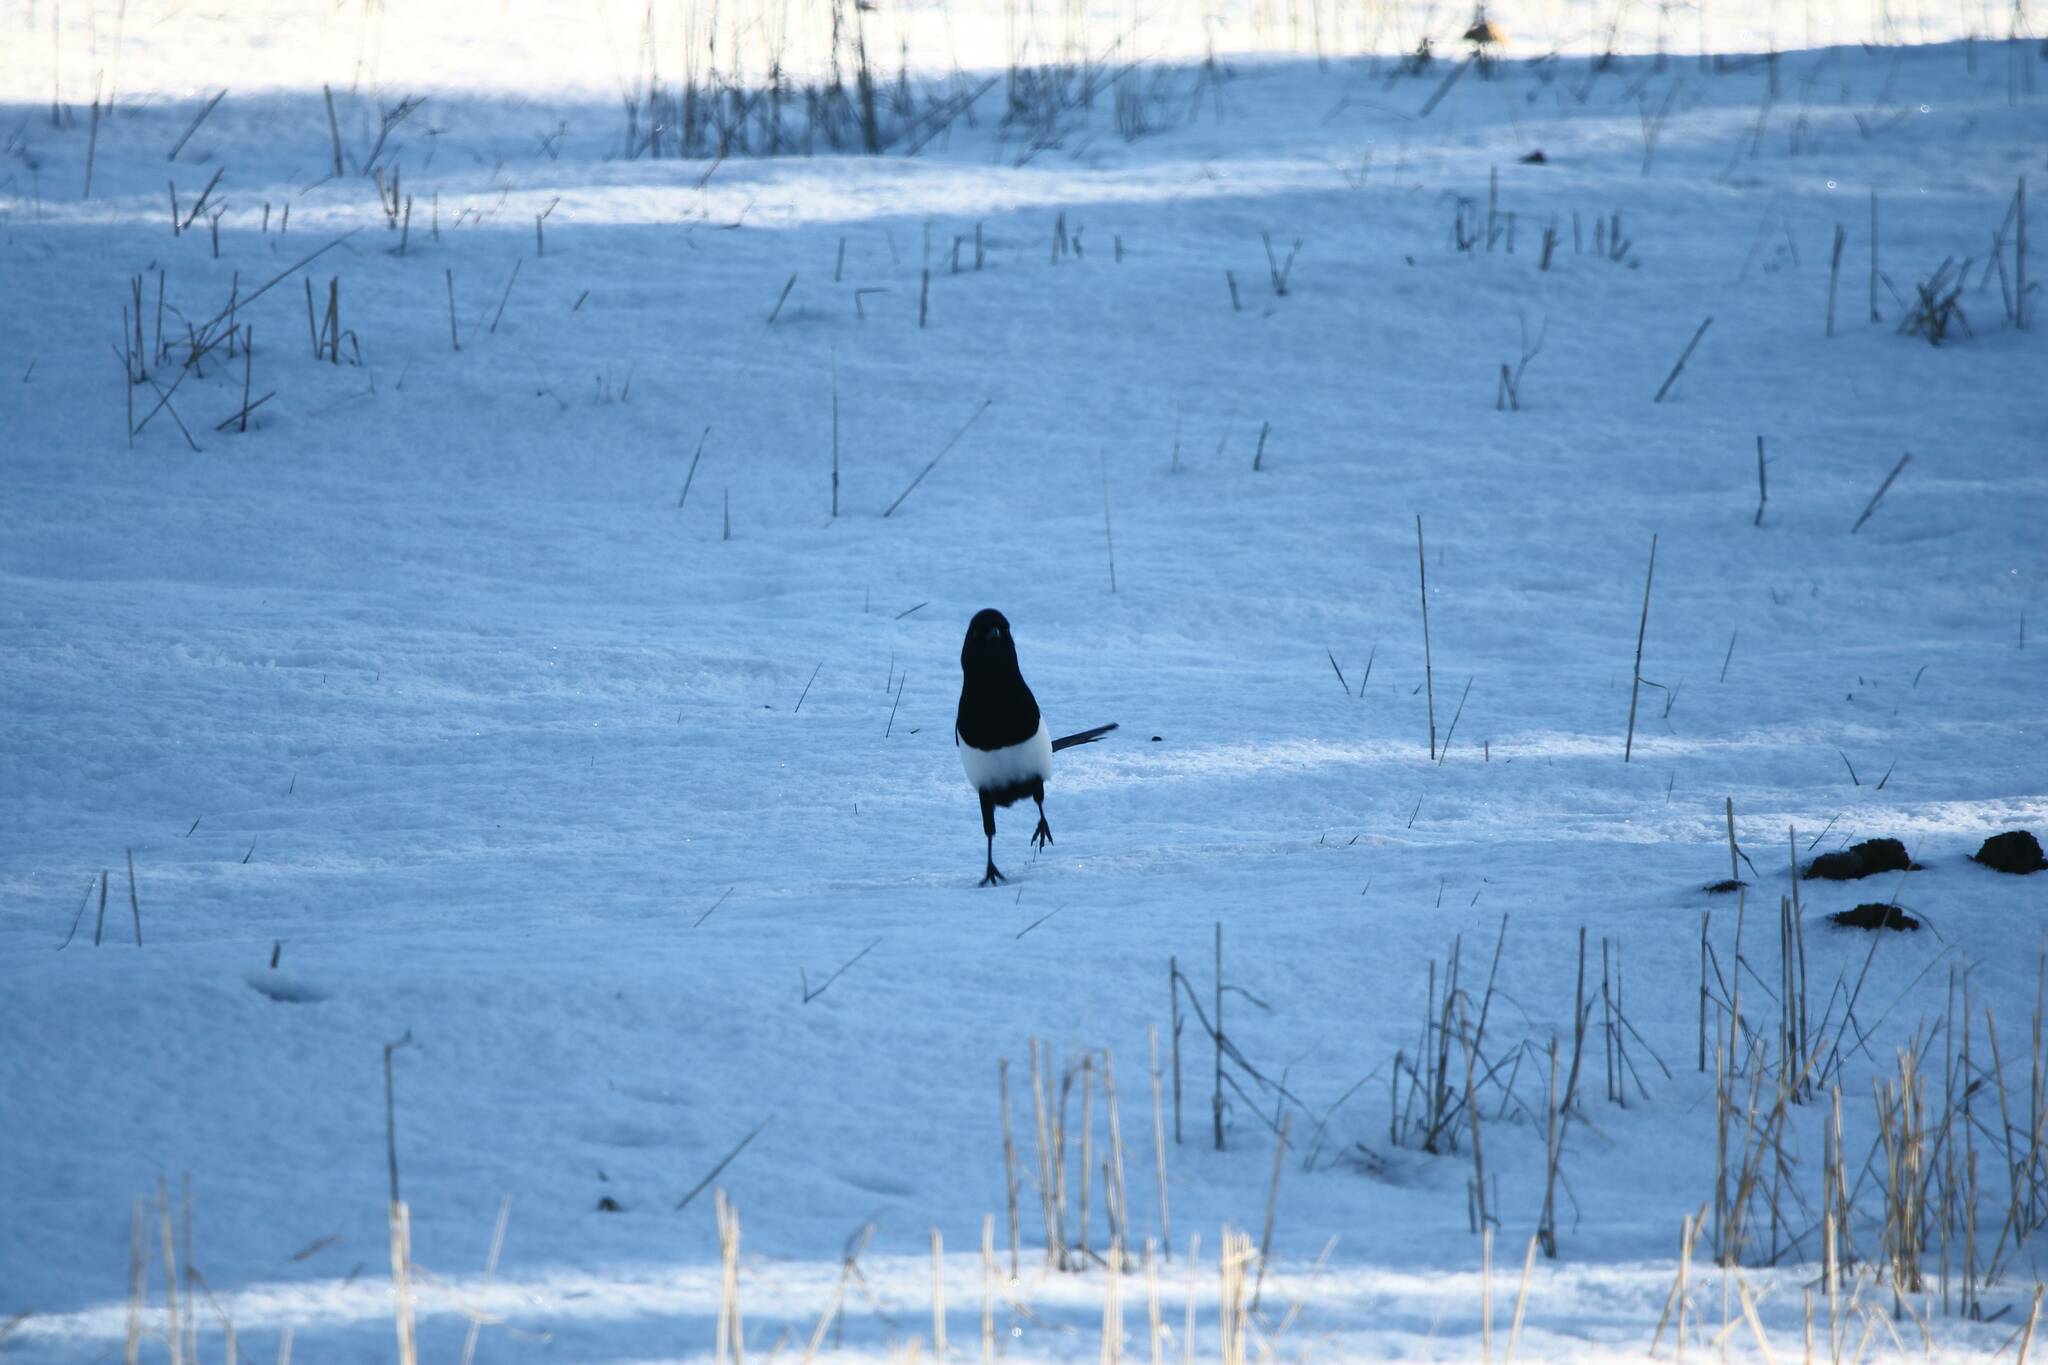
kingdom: Animalia
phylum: Chordata
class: Aves
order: Passeriformes
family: Corvidae
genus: Pica
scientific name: Pica mauritanica
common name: Maghreb magpie
